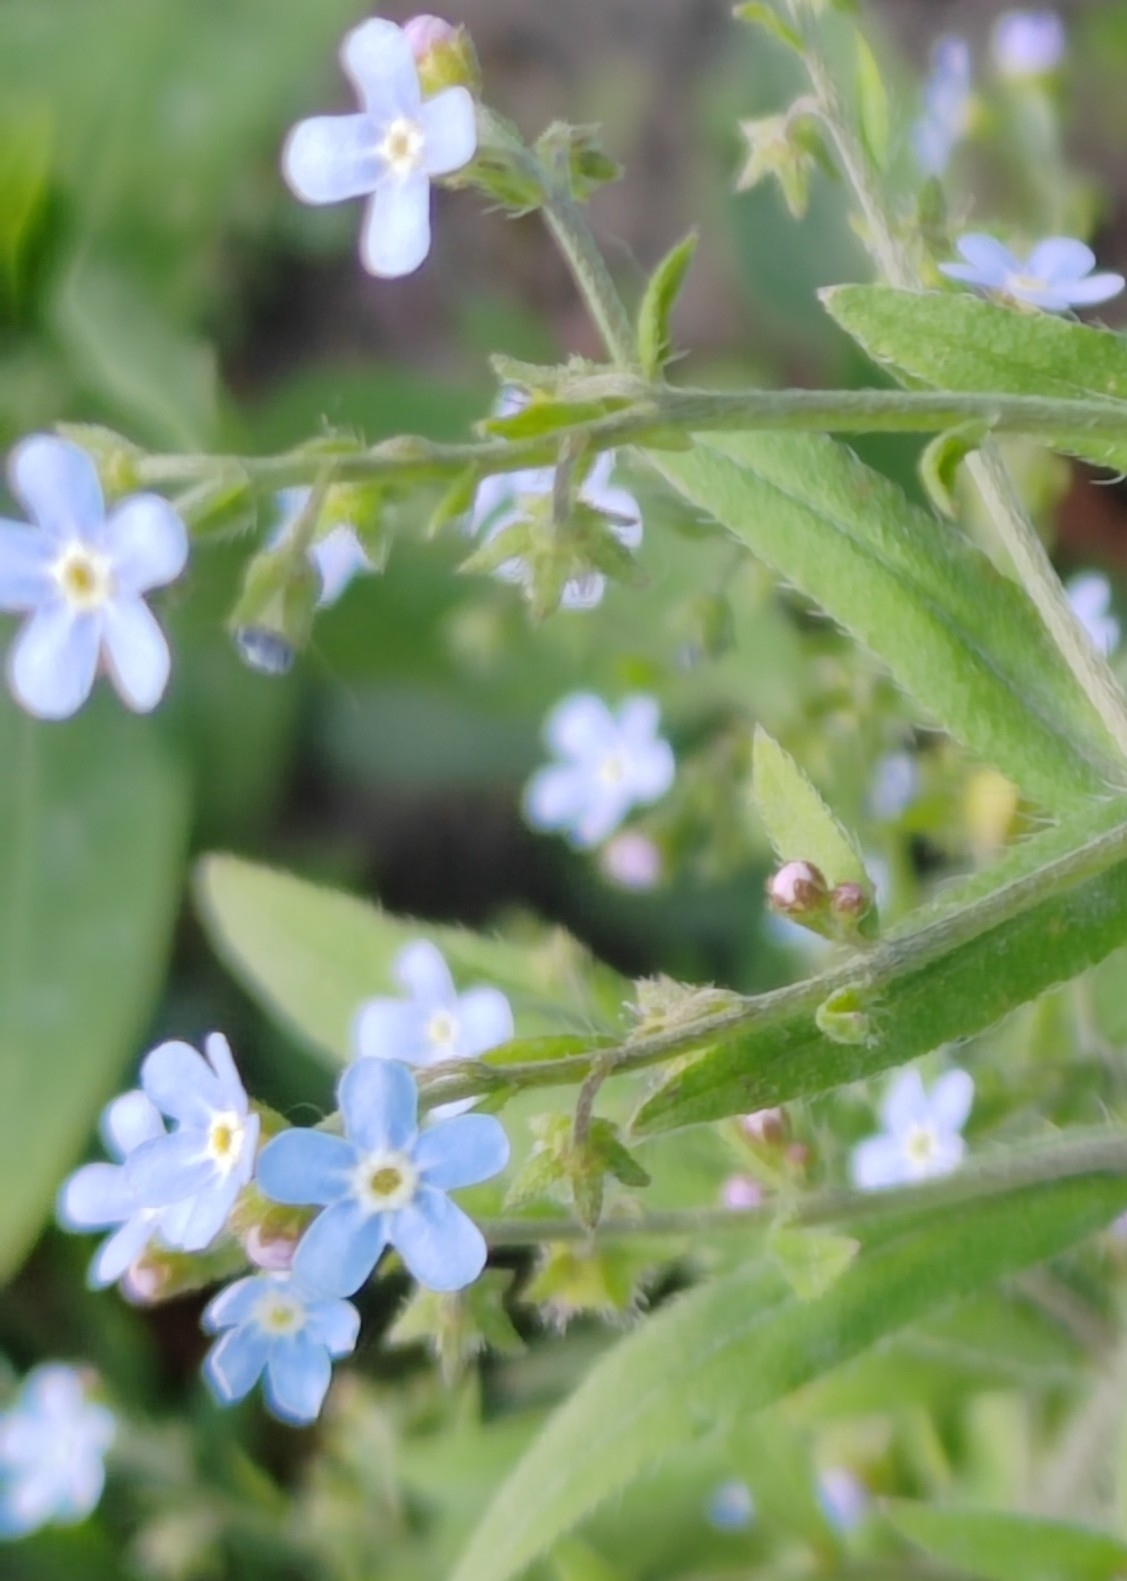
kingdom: Plantae
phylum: Tracheophyta
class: Magnoliopsida
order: Boraginales
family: Boraginaceae
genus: Hackelia
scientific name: Hackelia deflexa
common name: Nodding stickseed
